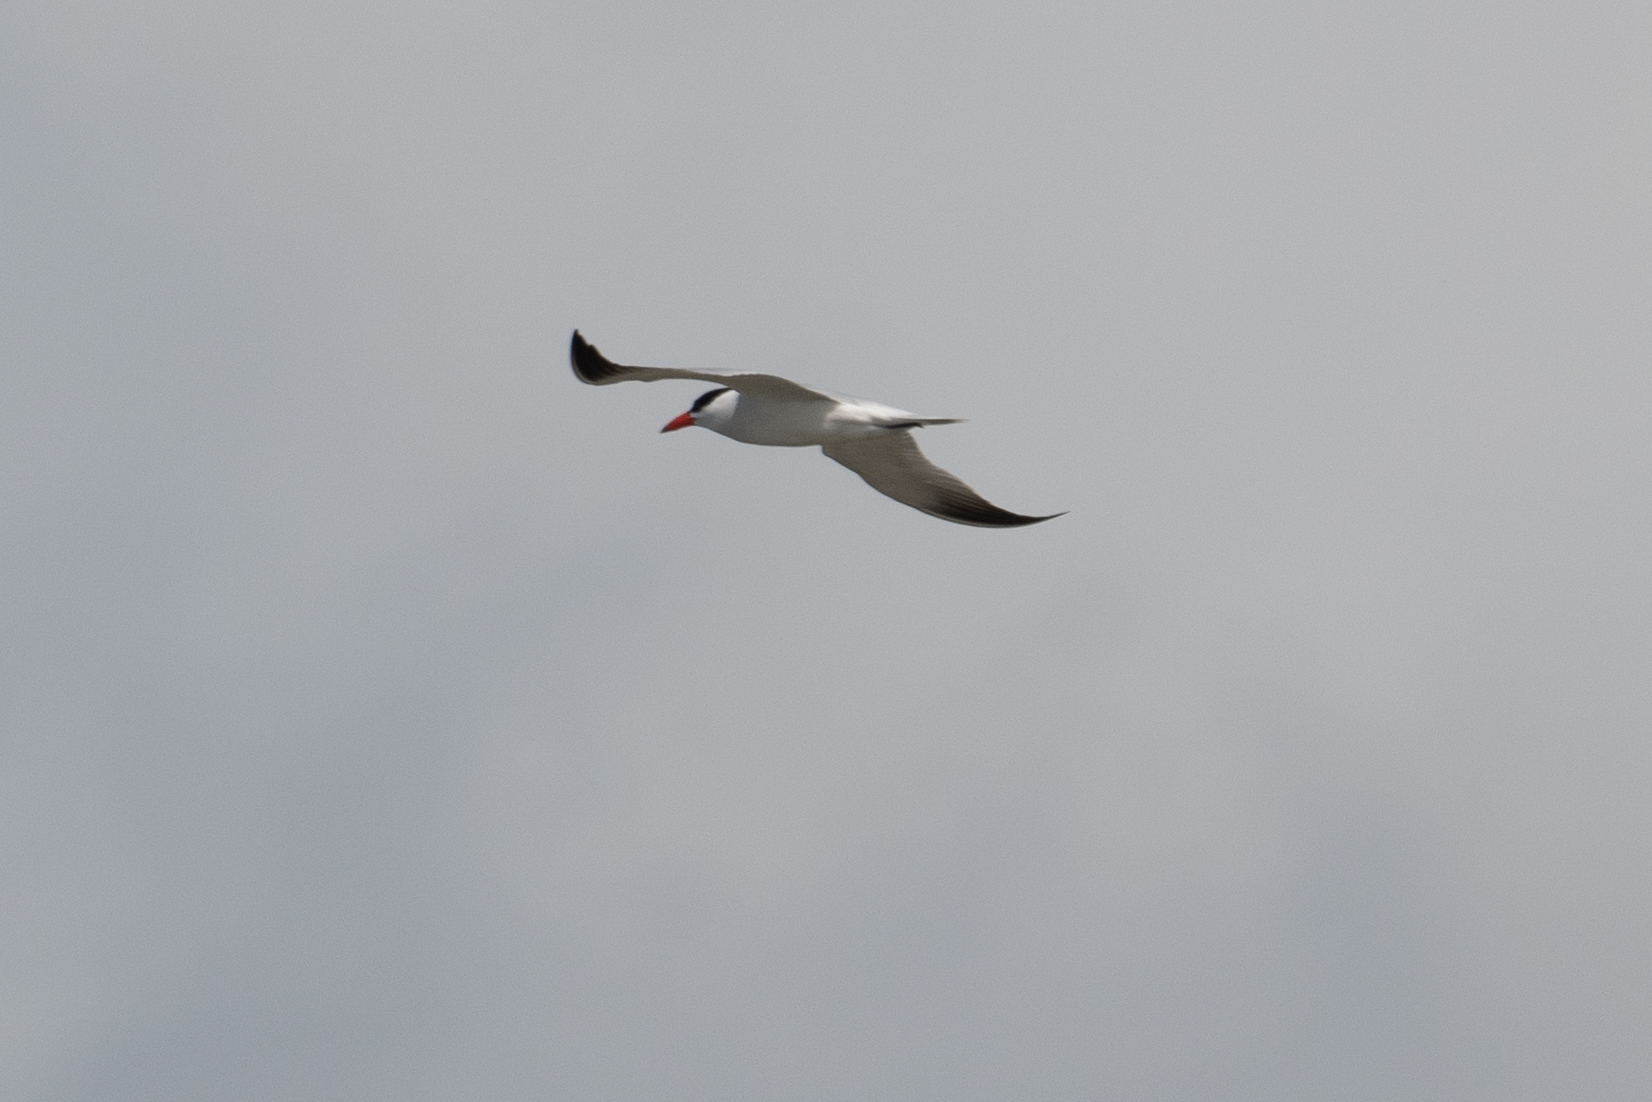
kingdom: Animalia
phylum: Chordata
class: Aves
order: Charadriiformes
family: Laridae
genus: Hydroprogne
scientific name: Hydroprogne caspia
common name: Caspian tern
